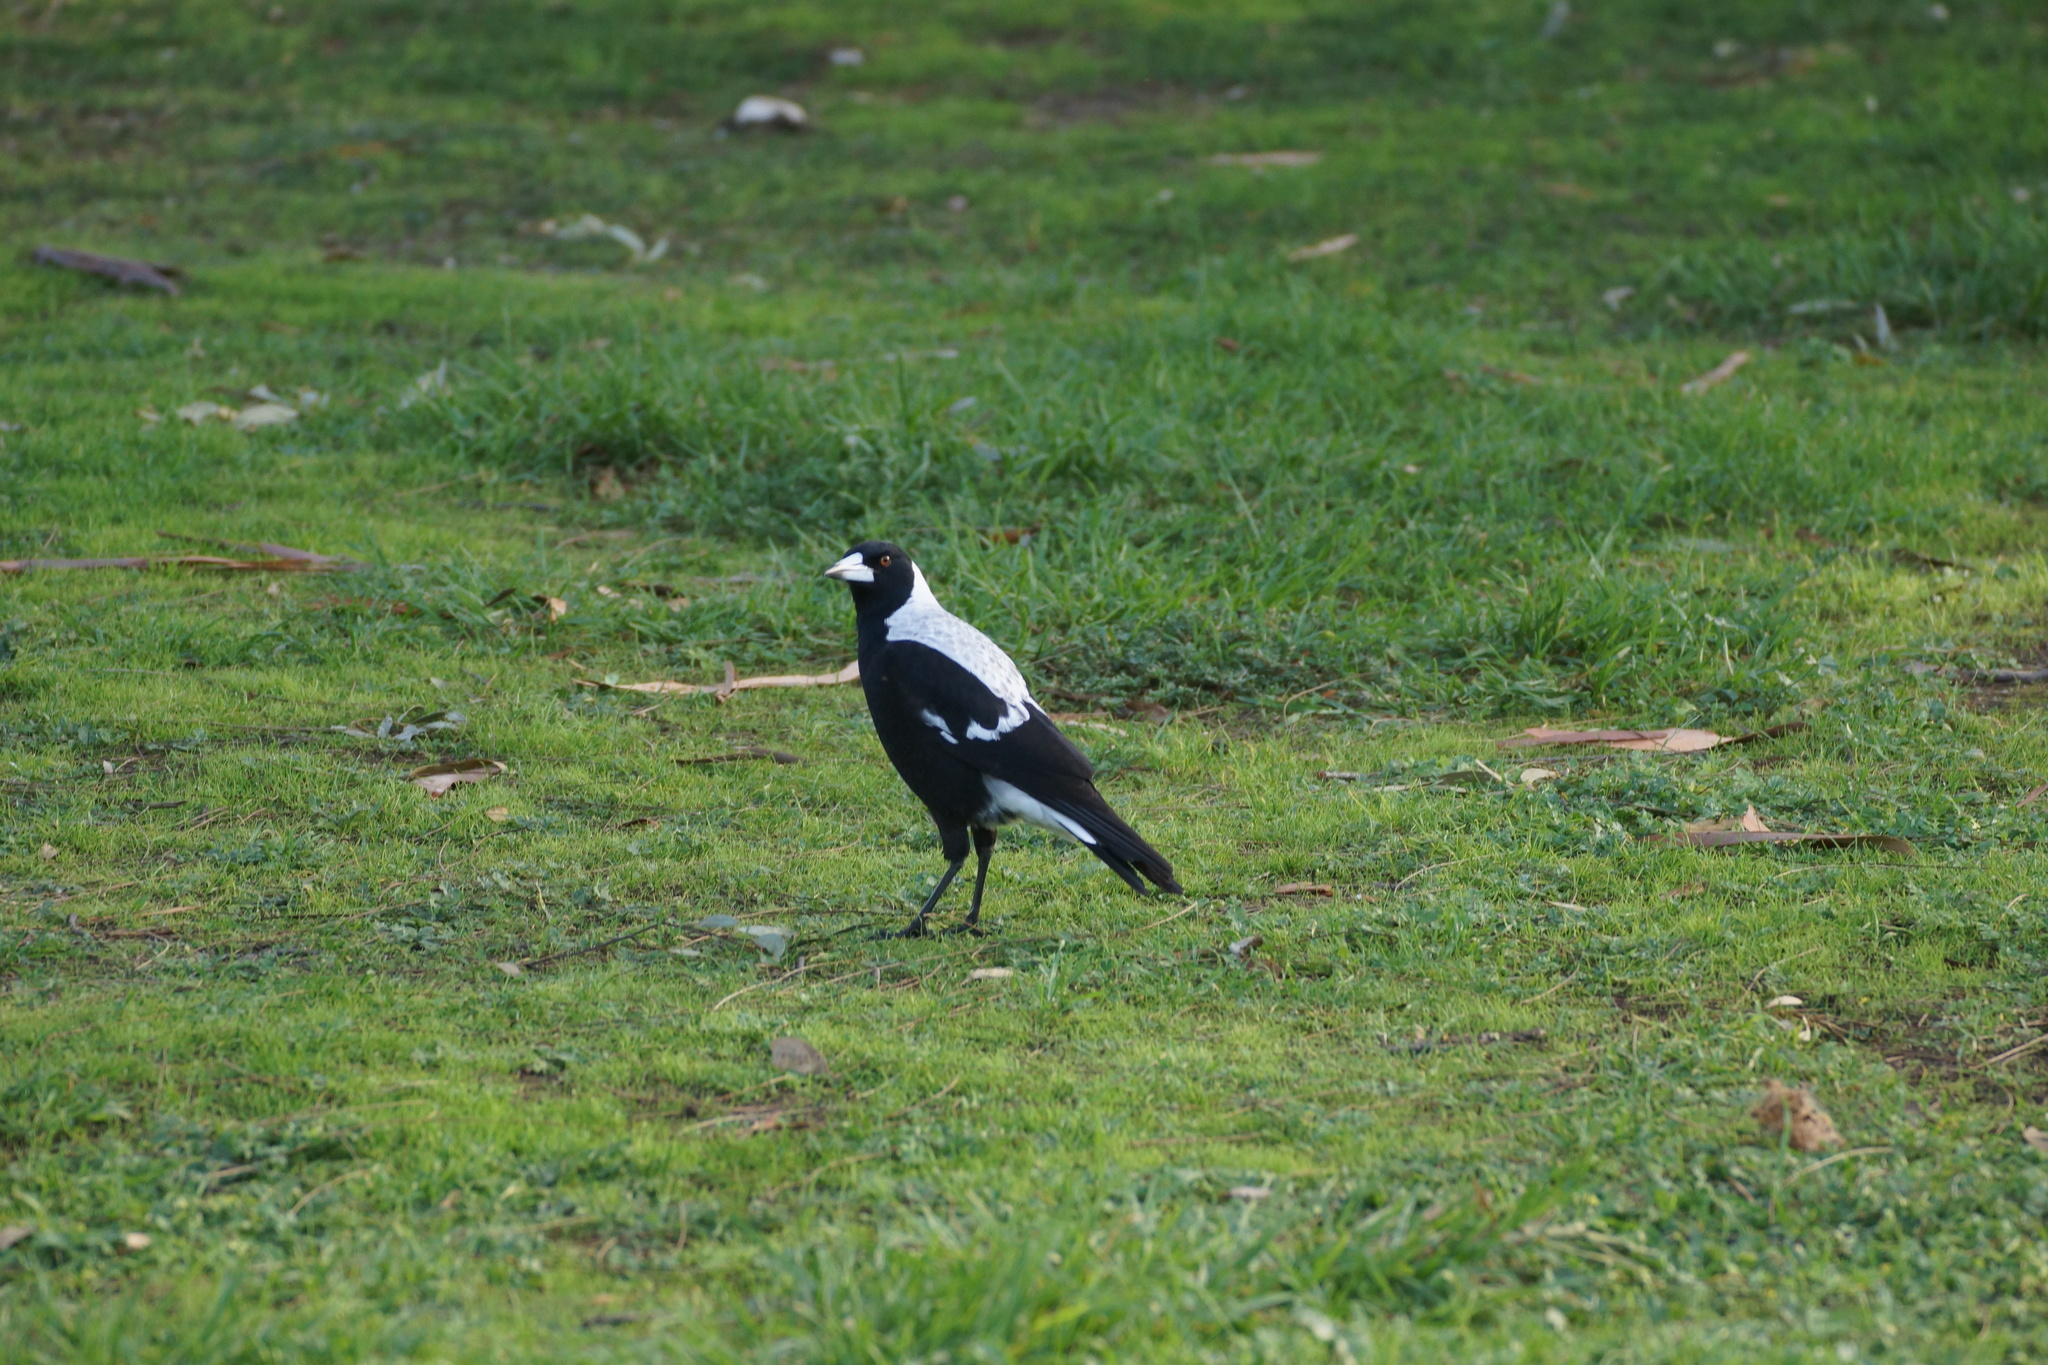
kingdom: Animalia
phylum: Chordata
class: Aves
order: Passeriformes
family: Cracticidae
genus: Gymnorhina
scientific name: Gymnorhina tibicen
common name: Australian magpie
